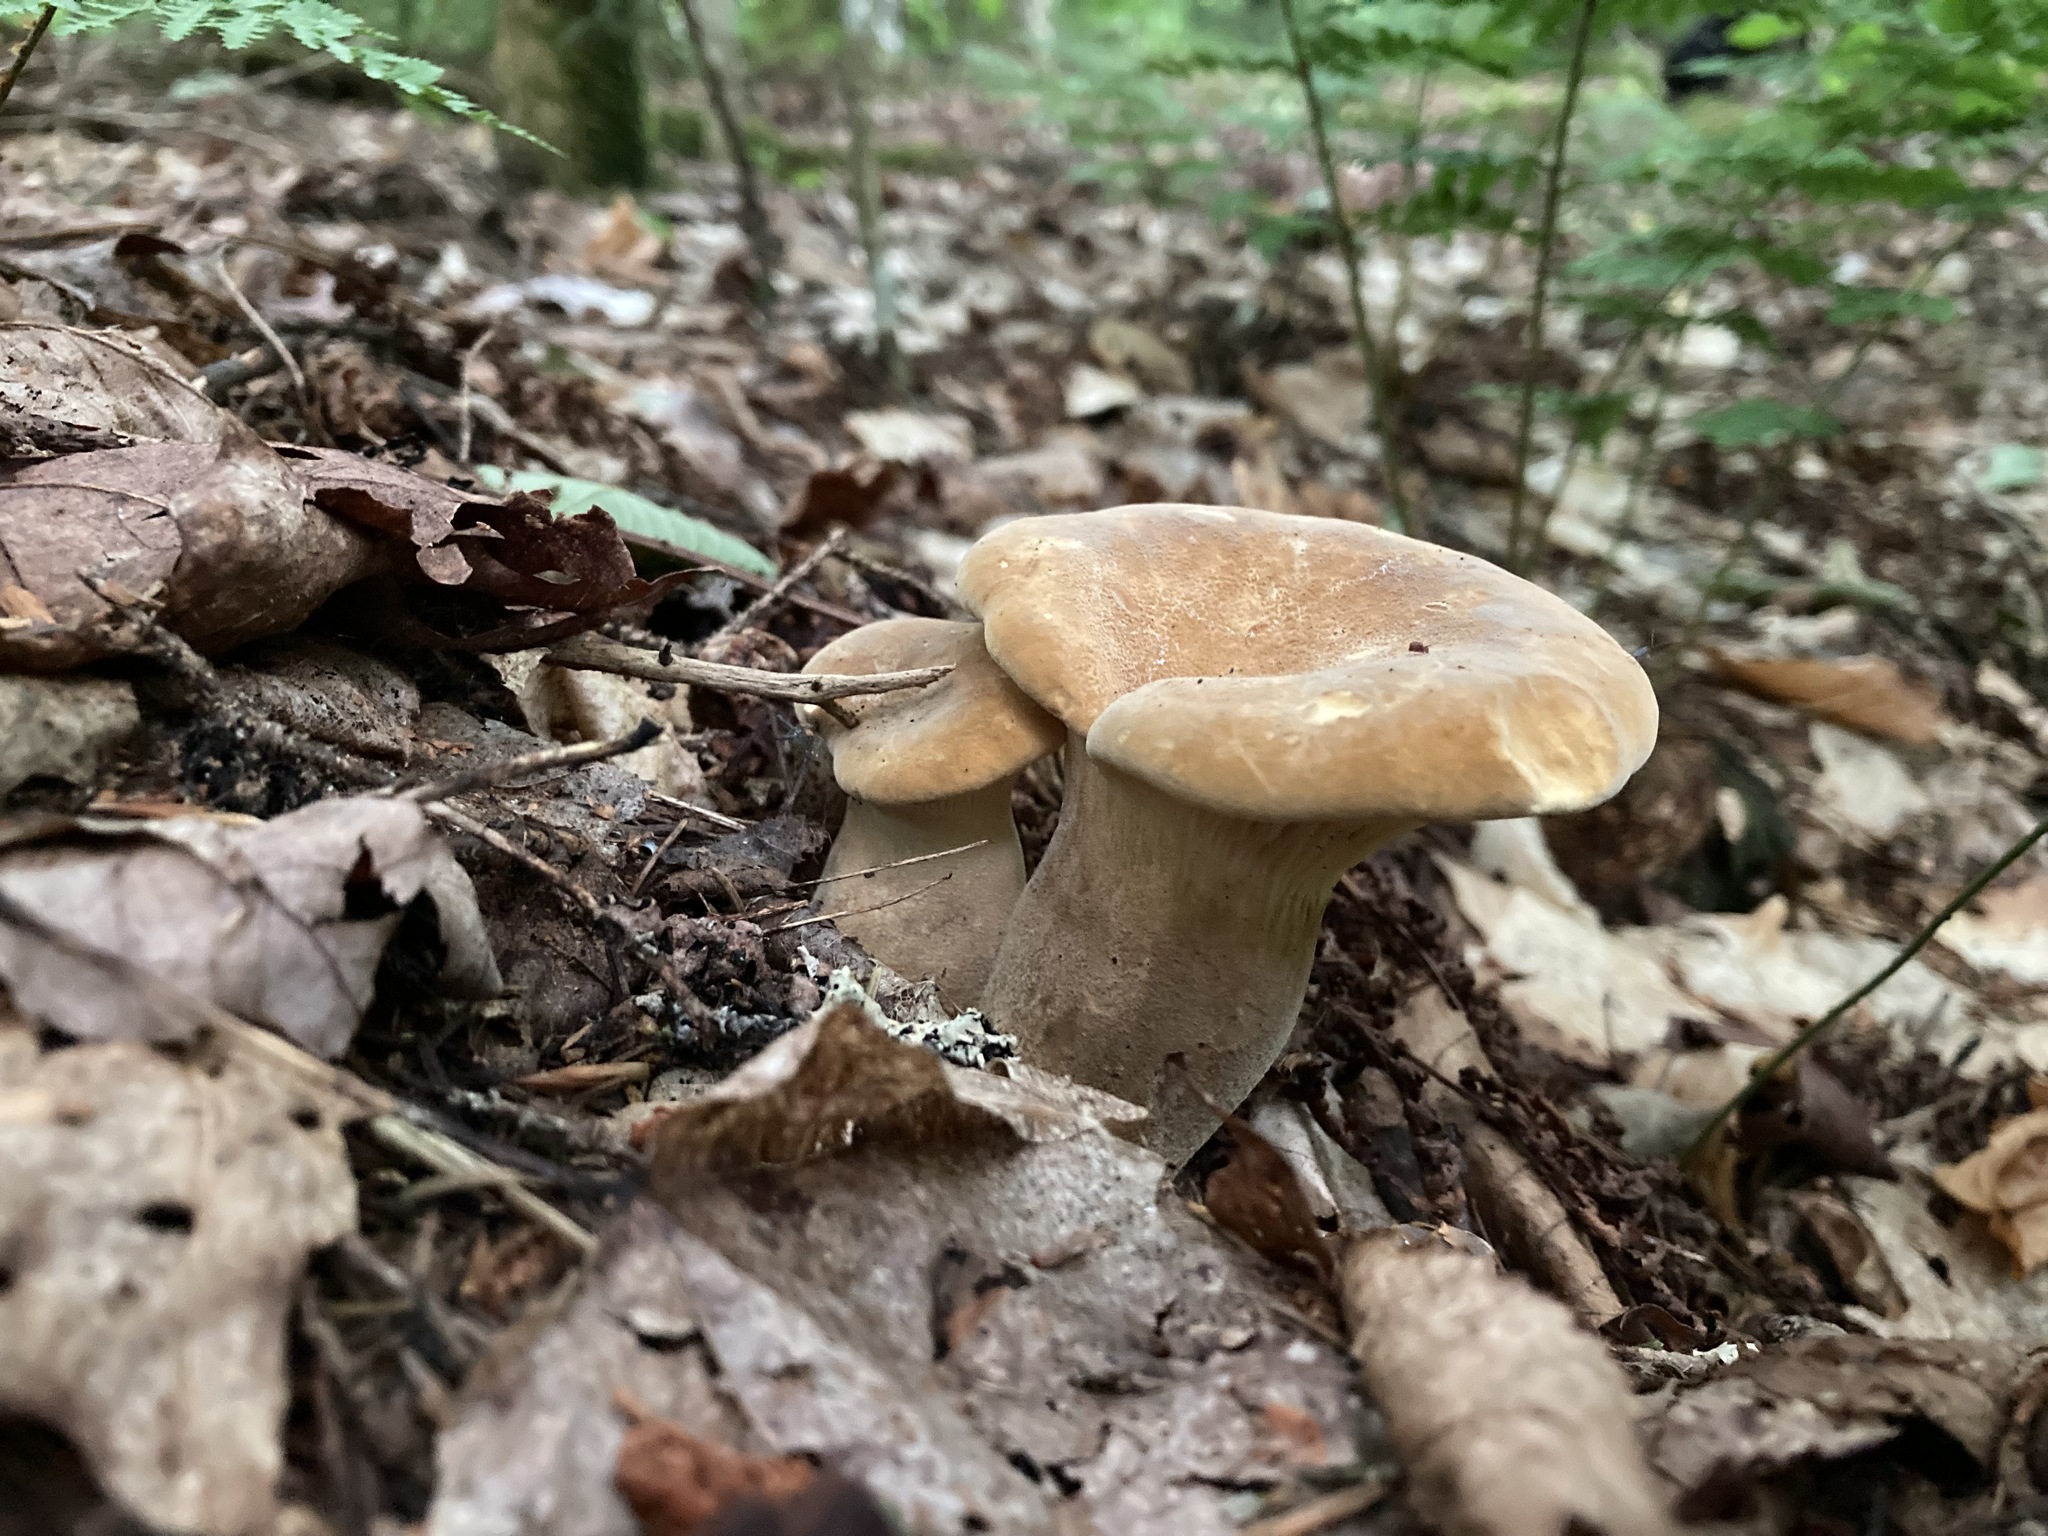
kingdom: Fungi
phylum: Basidiomycota
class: Agaricomycetes
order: Boletales
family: Tapinellaceae
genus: Tapinella
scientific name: Tapinella atrotomentosa
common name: Velvet rollrim
